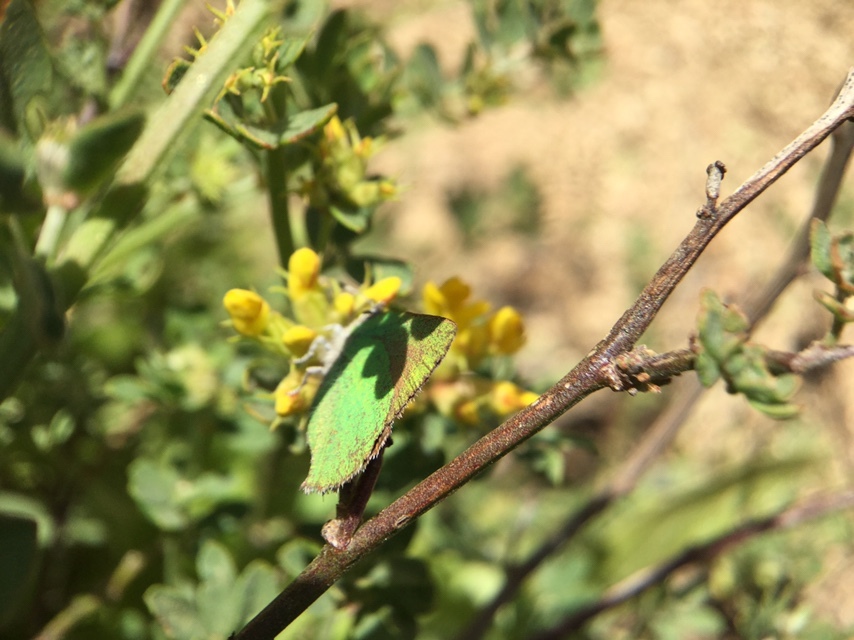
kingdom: Animalia
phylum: Arthropoda
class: Insecta
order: Lepidoptera
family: Lycaenidae
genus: Callophrys
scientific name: Callophrys dumetorum
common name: Bramble hairstreak
